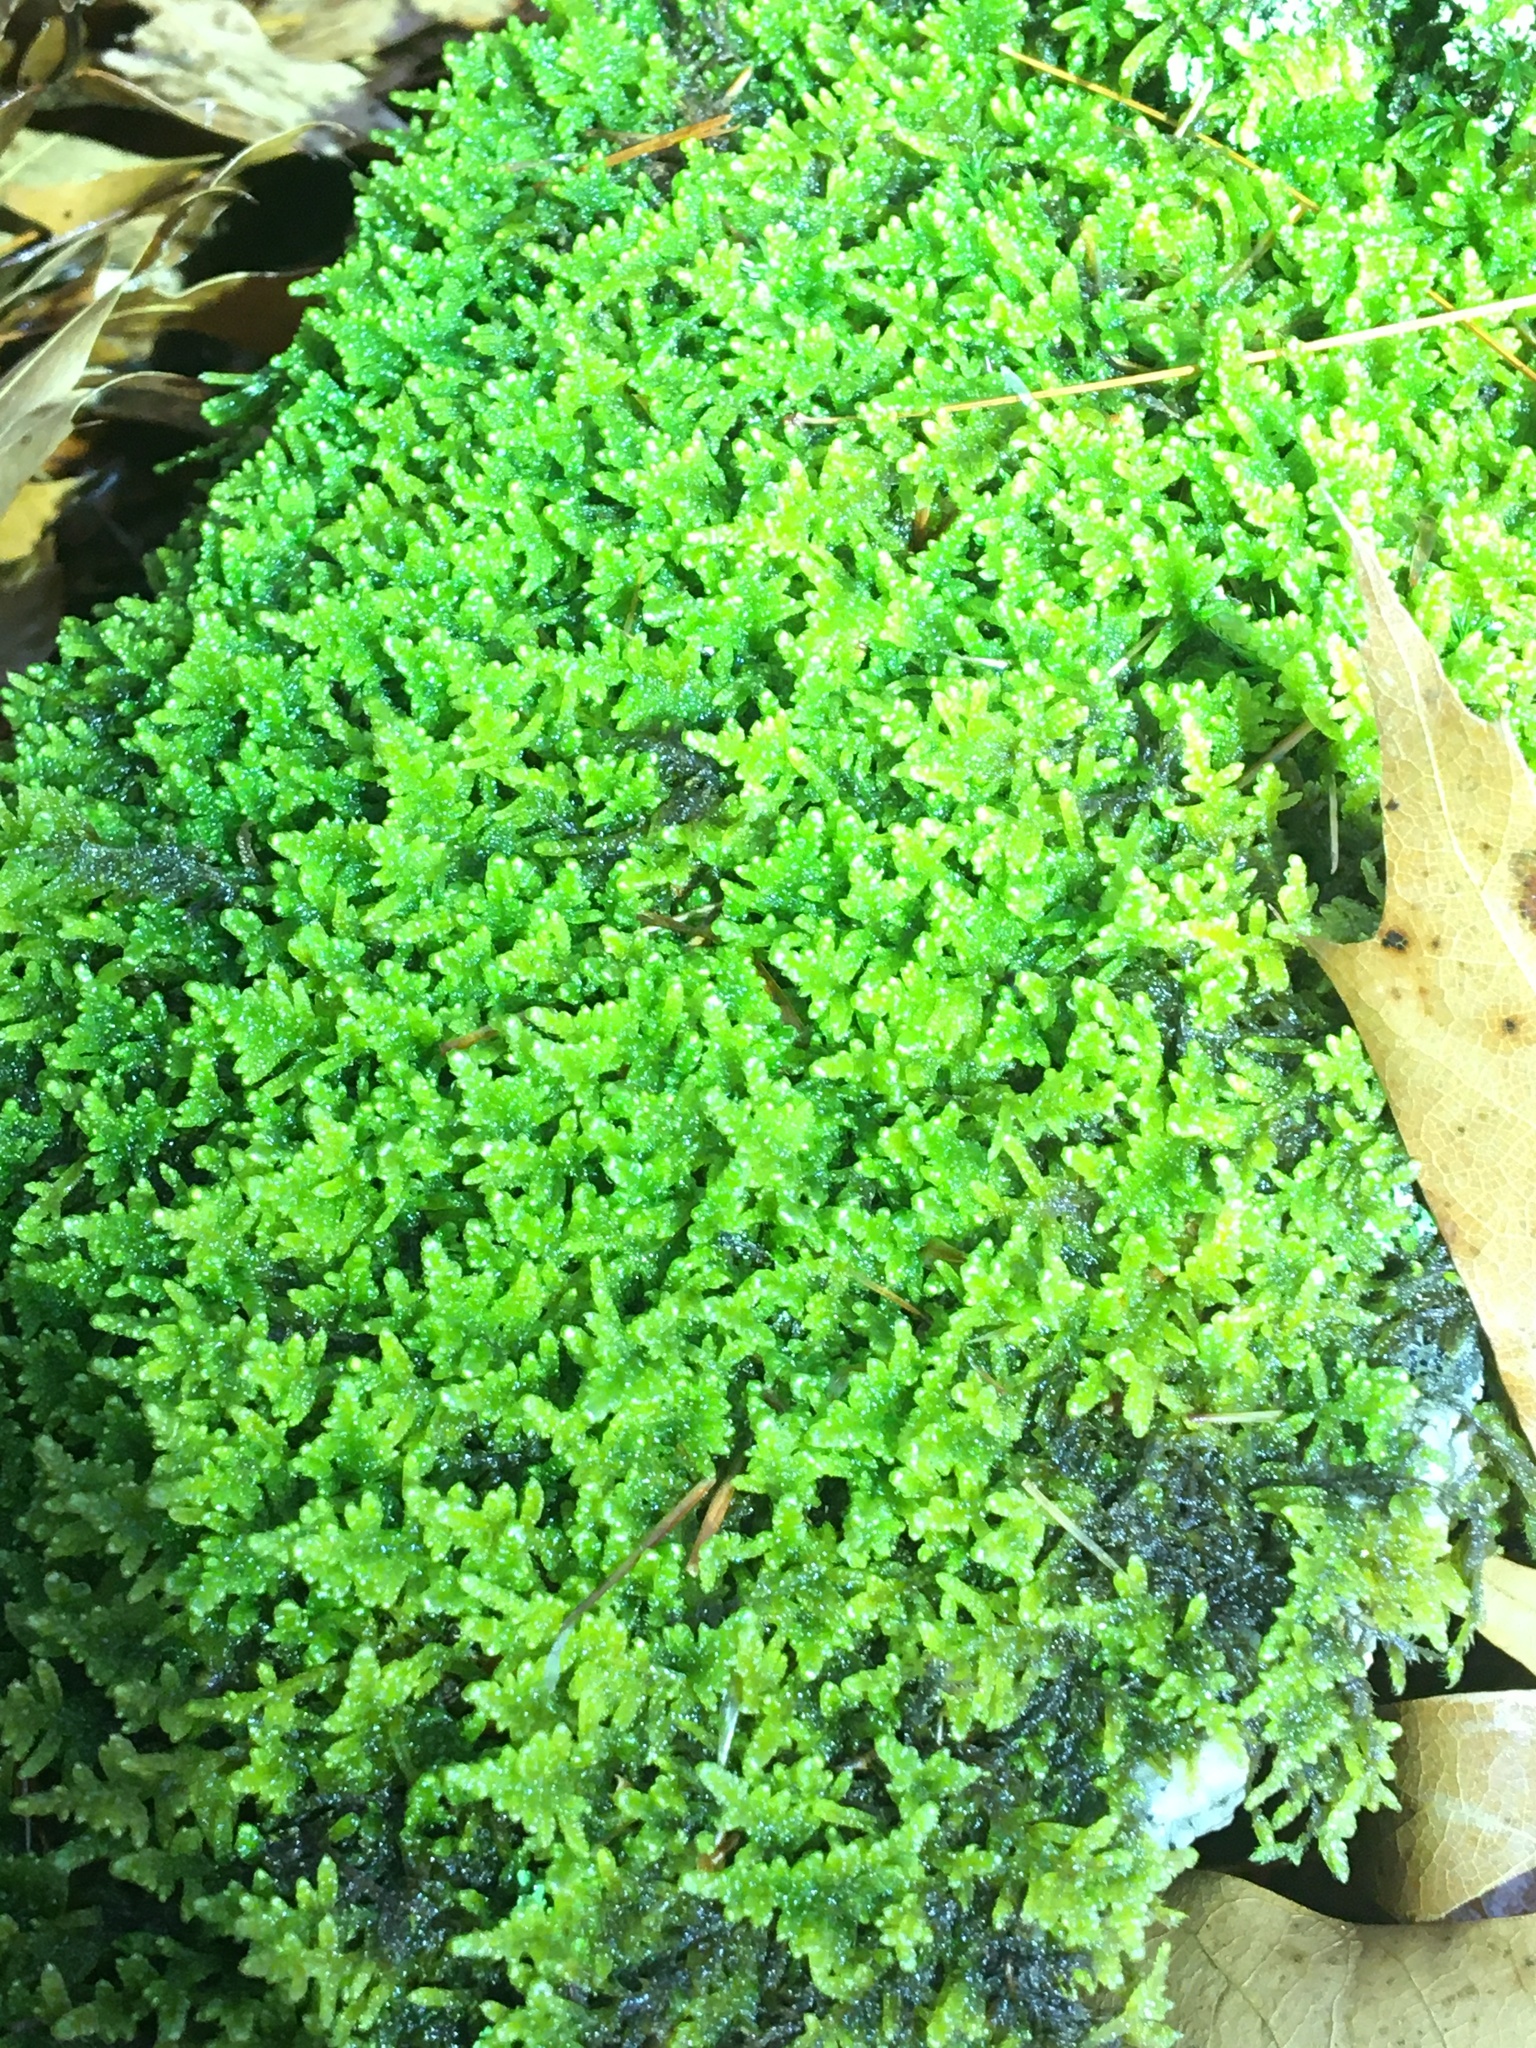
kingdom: Plantae
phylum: Bryophyta
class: Bryopsida
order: Hypnales
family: Callicladiaceae
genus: Callicladium
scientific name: Callicladium imponens
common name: Brocade moss
